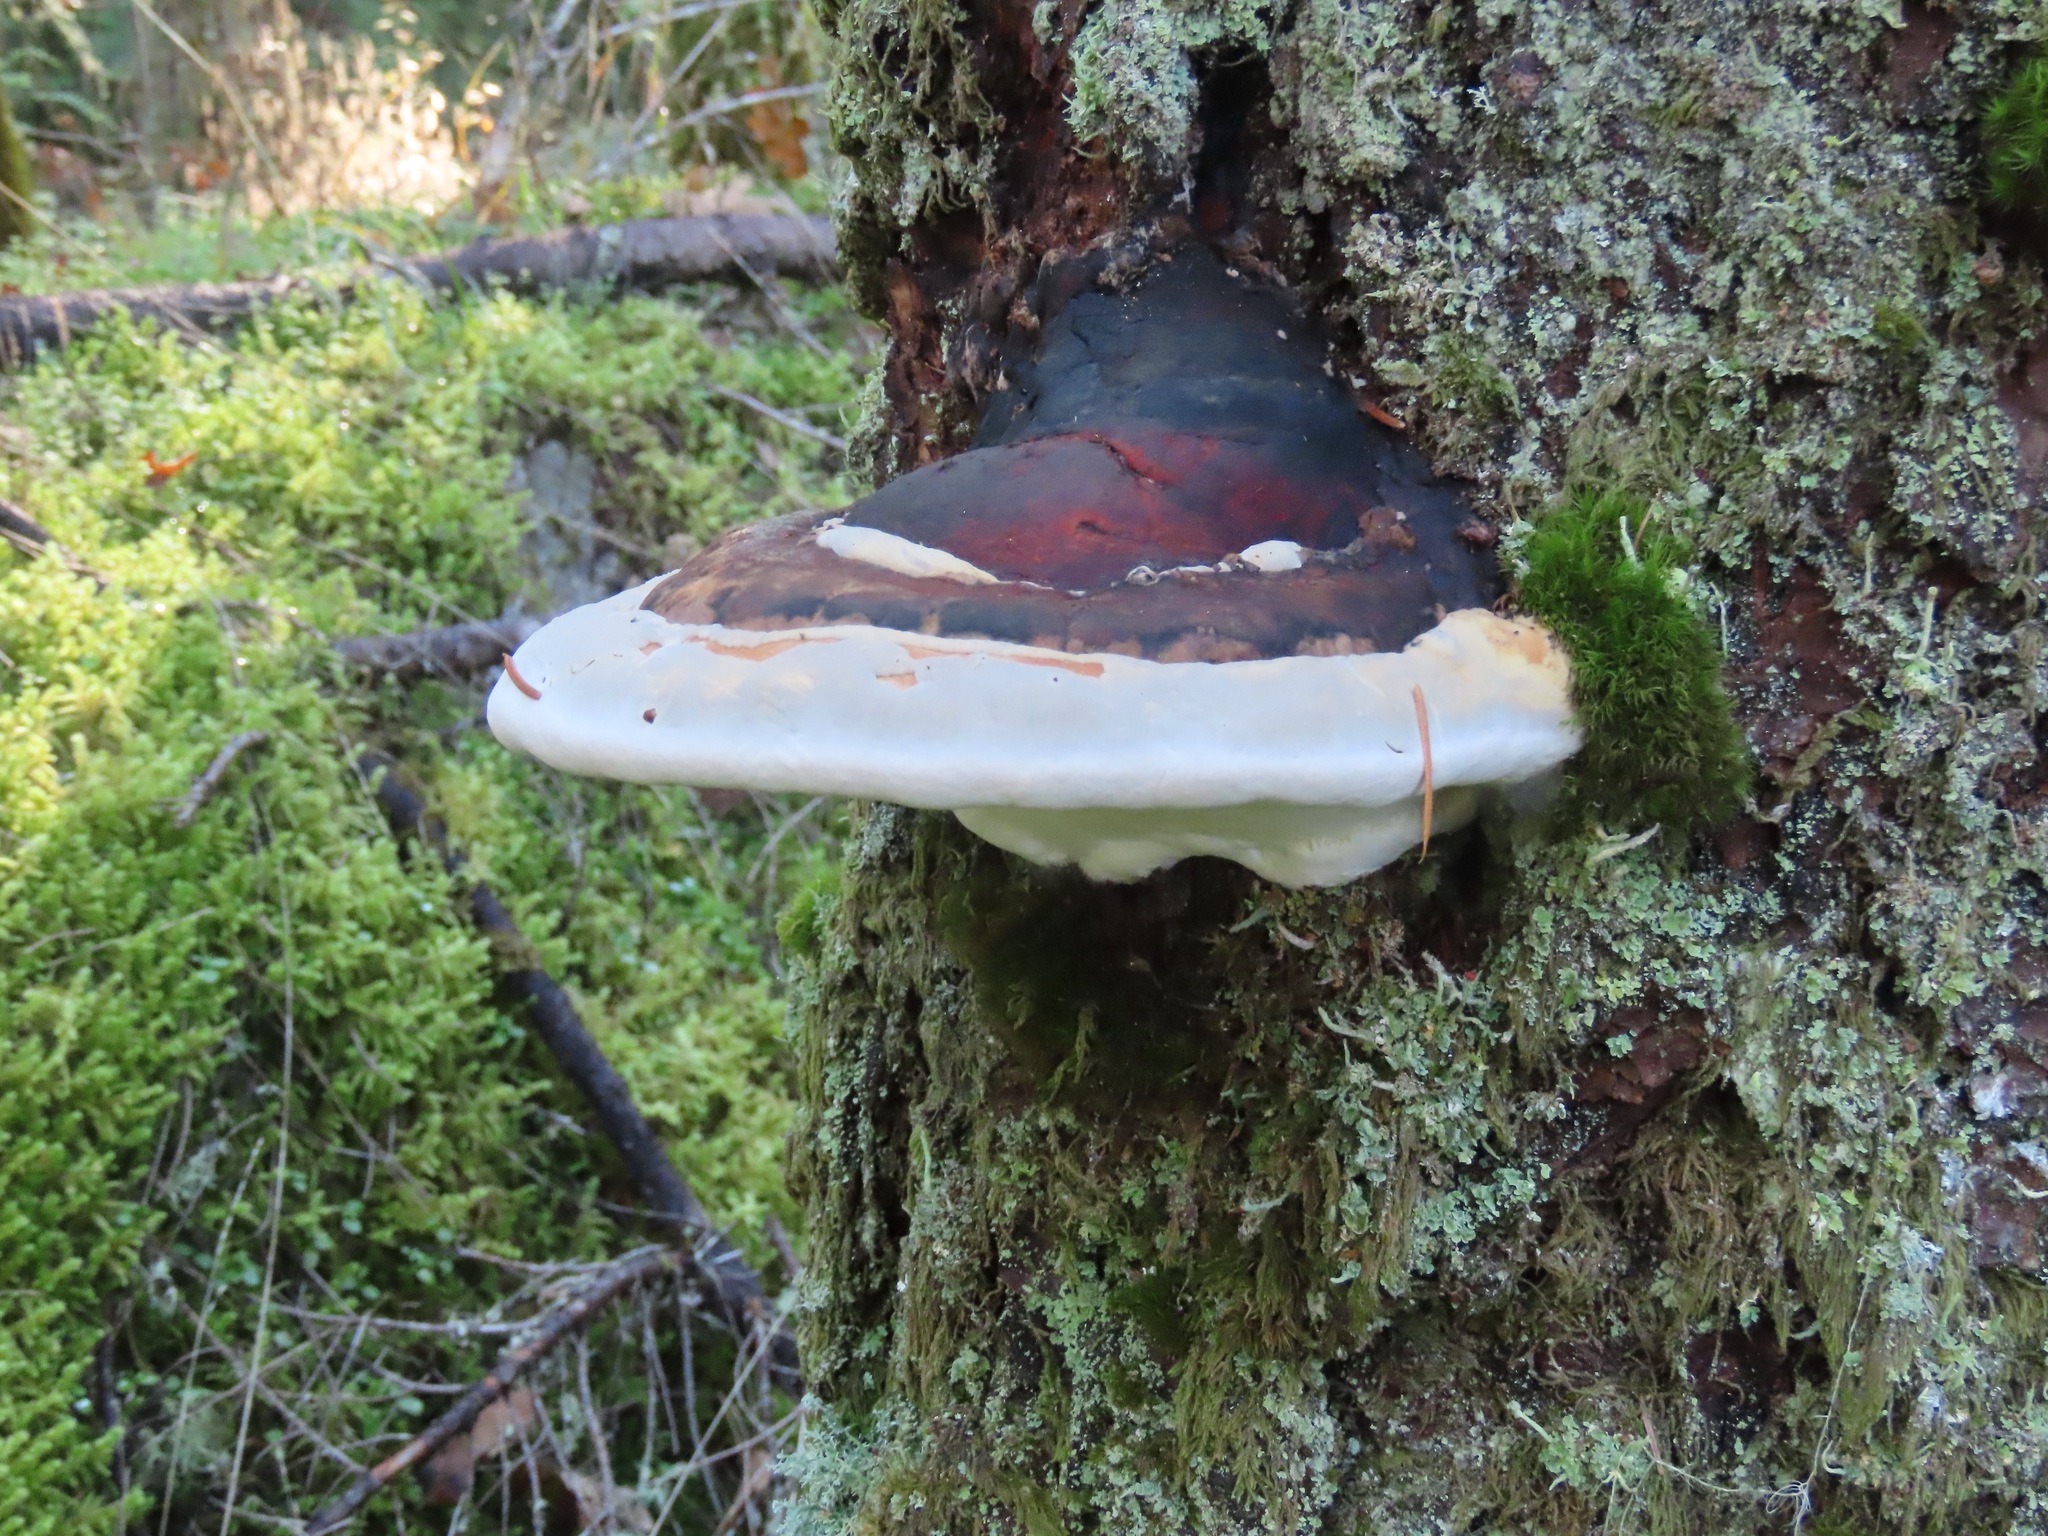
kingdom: Fungi
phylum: Basidiomycota
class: Agaricomycetes
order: Polyporales
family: Fomitopsidaceae
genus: Fomitopsis
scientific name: Fomitopsis mounceae
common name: Northern red belt
